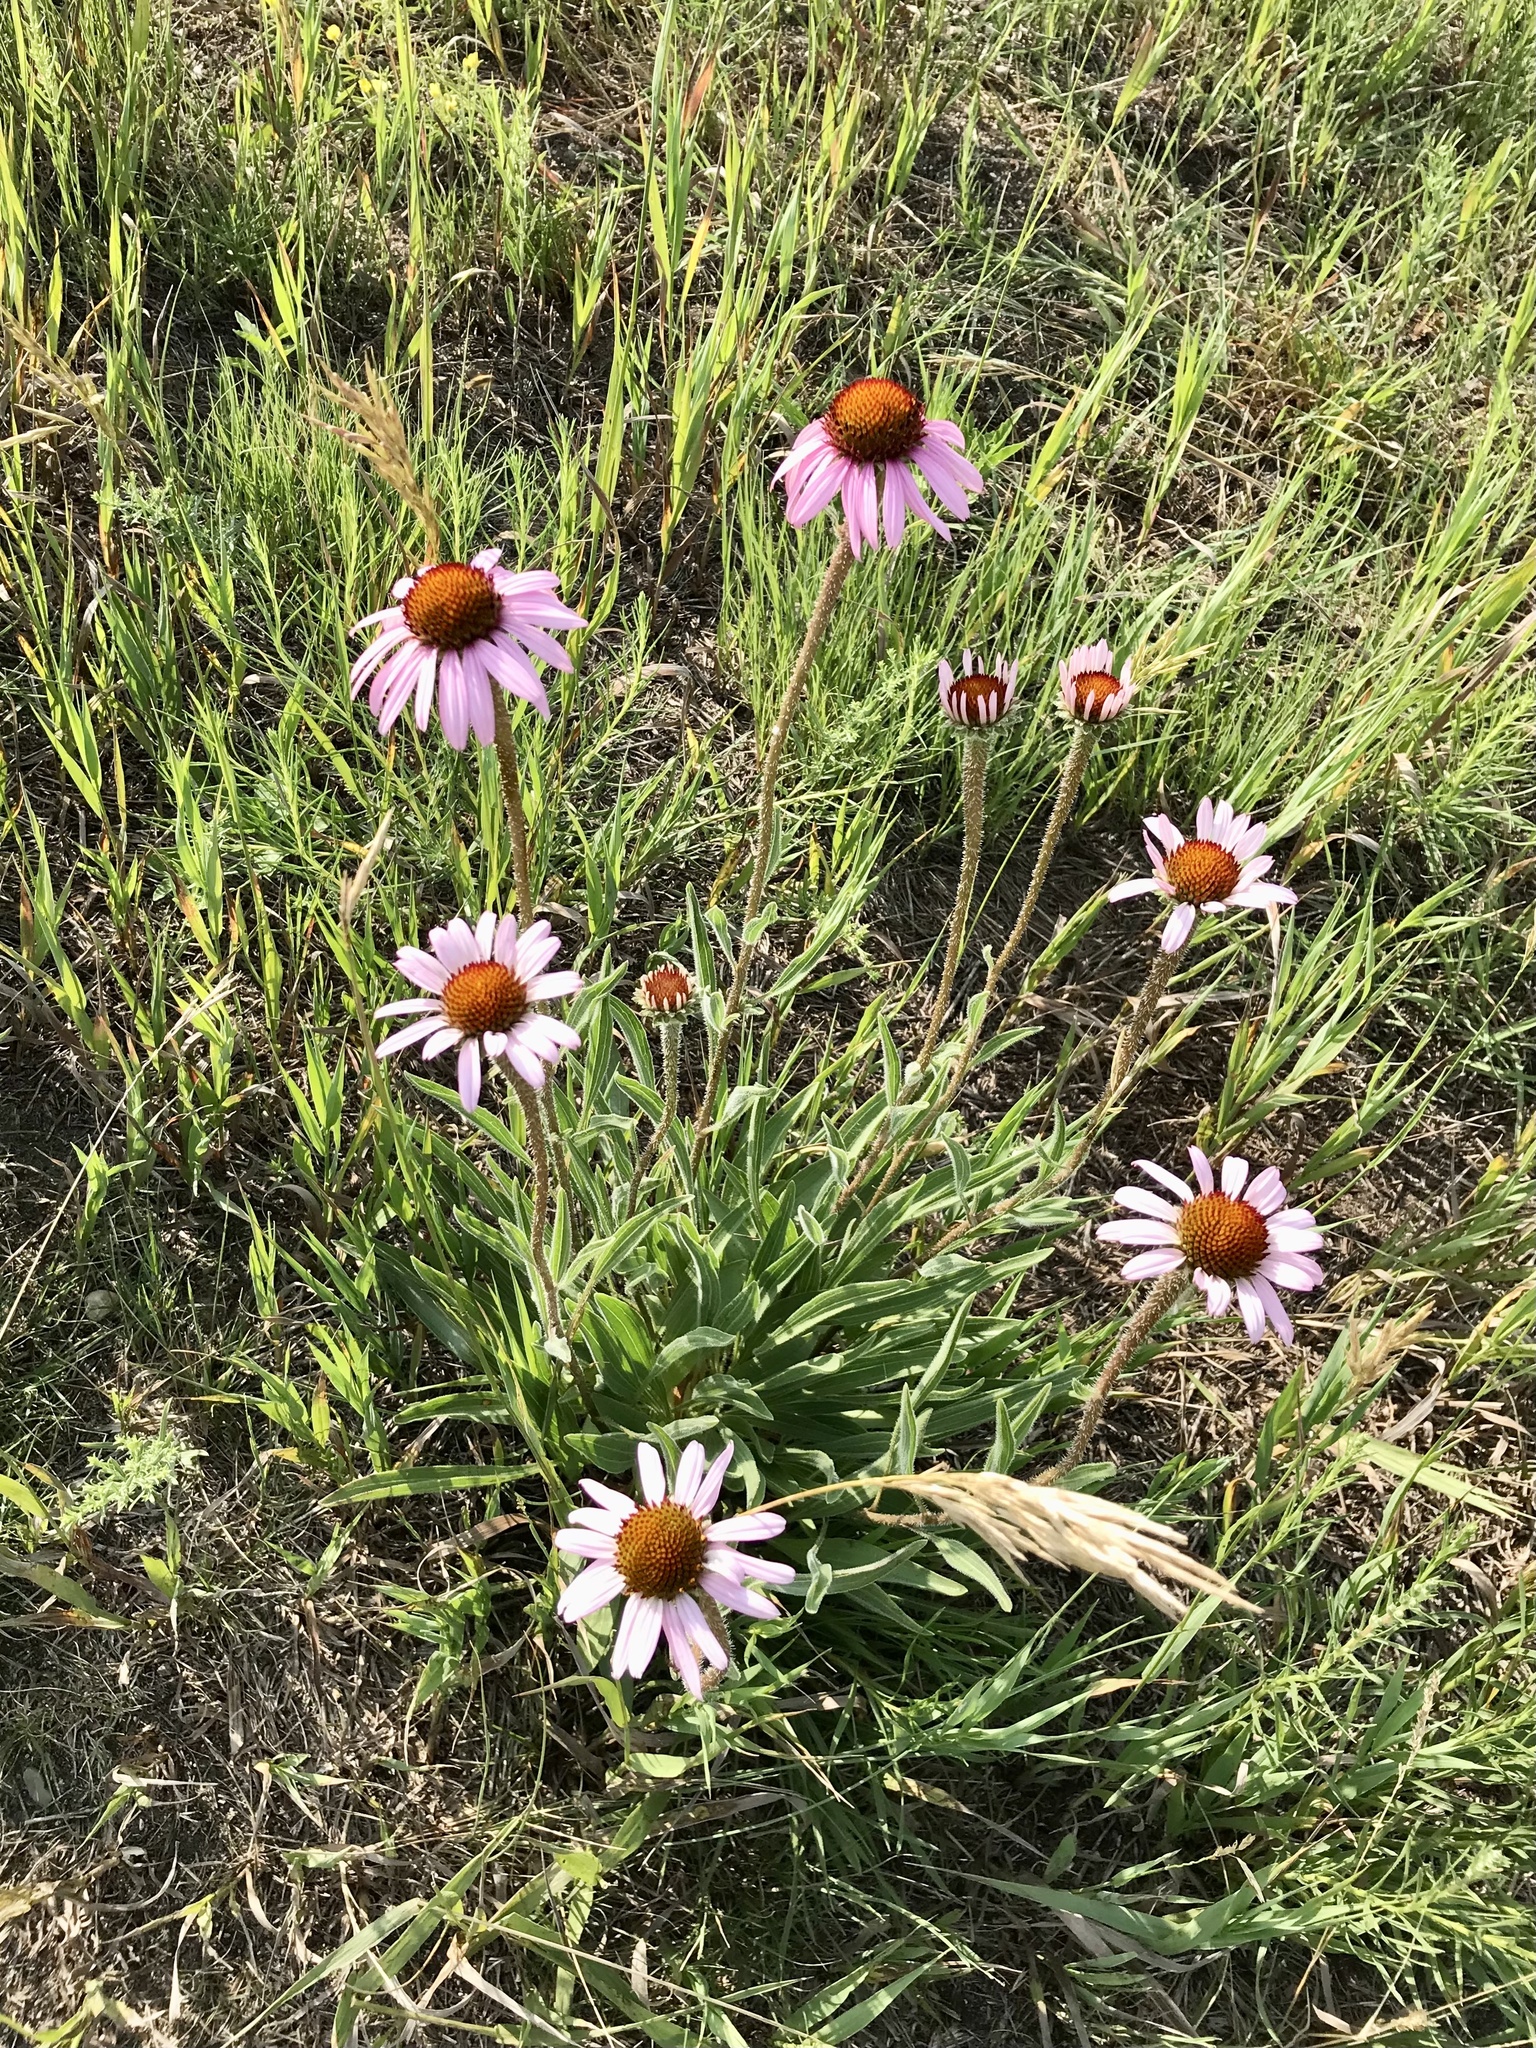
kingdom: Plantae
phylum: Tracheophyta
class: Magnoliopsida
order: Asterales
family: Asteraceae
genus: Echinacea
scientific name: Echinacea angustifolia
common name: Black-sampson echinacea
